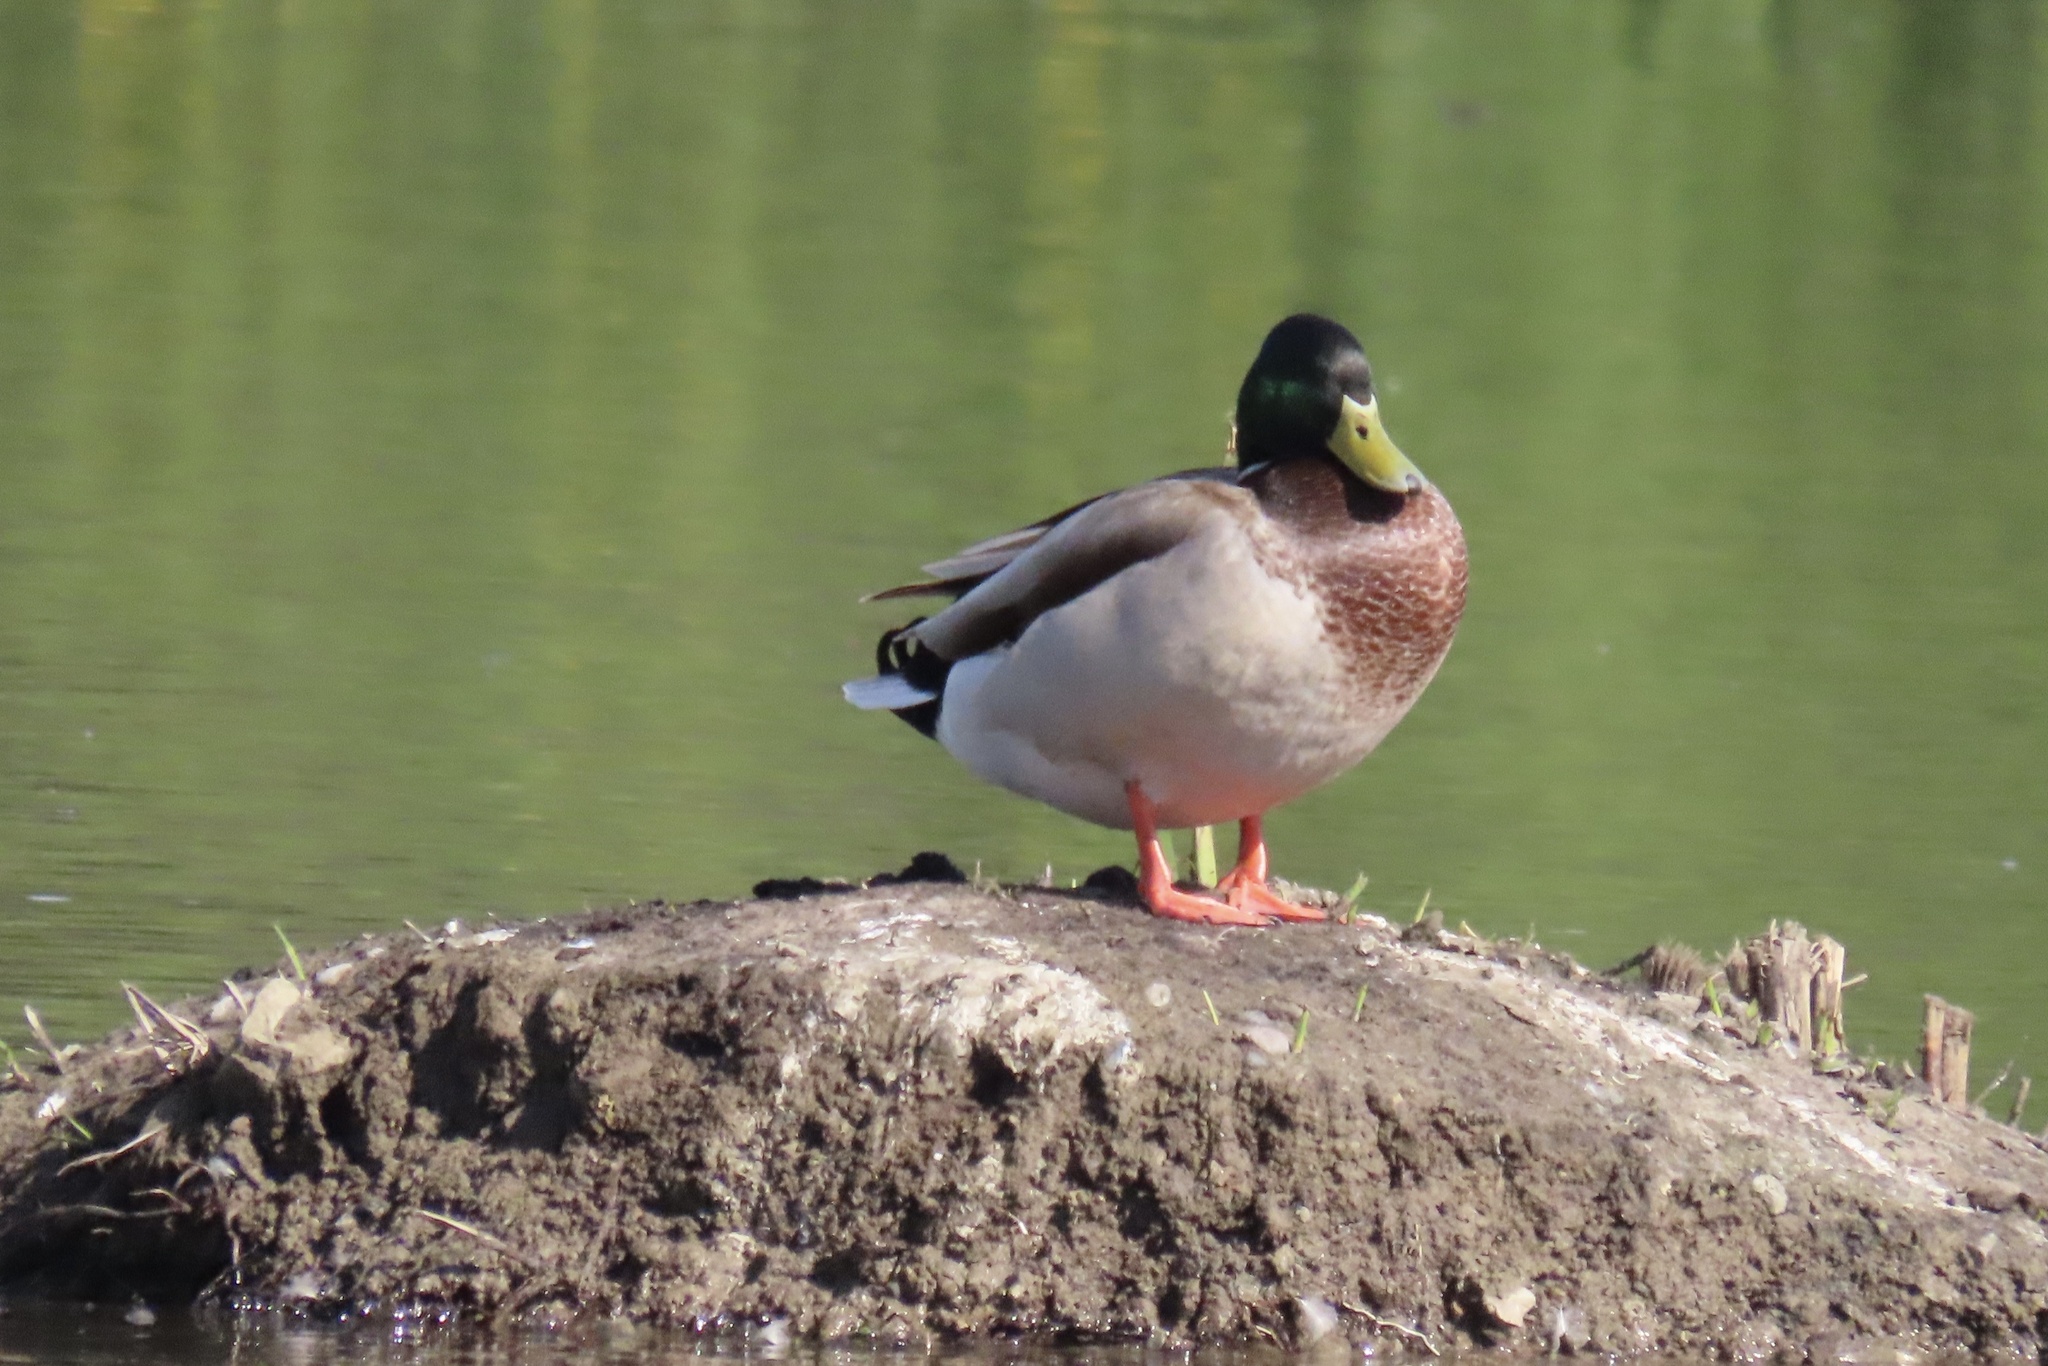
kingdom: Animalia
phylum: Chordata
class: Aves
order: Anseriformes
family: Anatidae
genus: Anas
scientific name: Anas platyrhynchos
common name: Mallard
